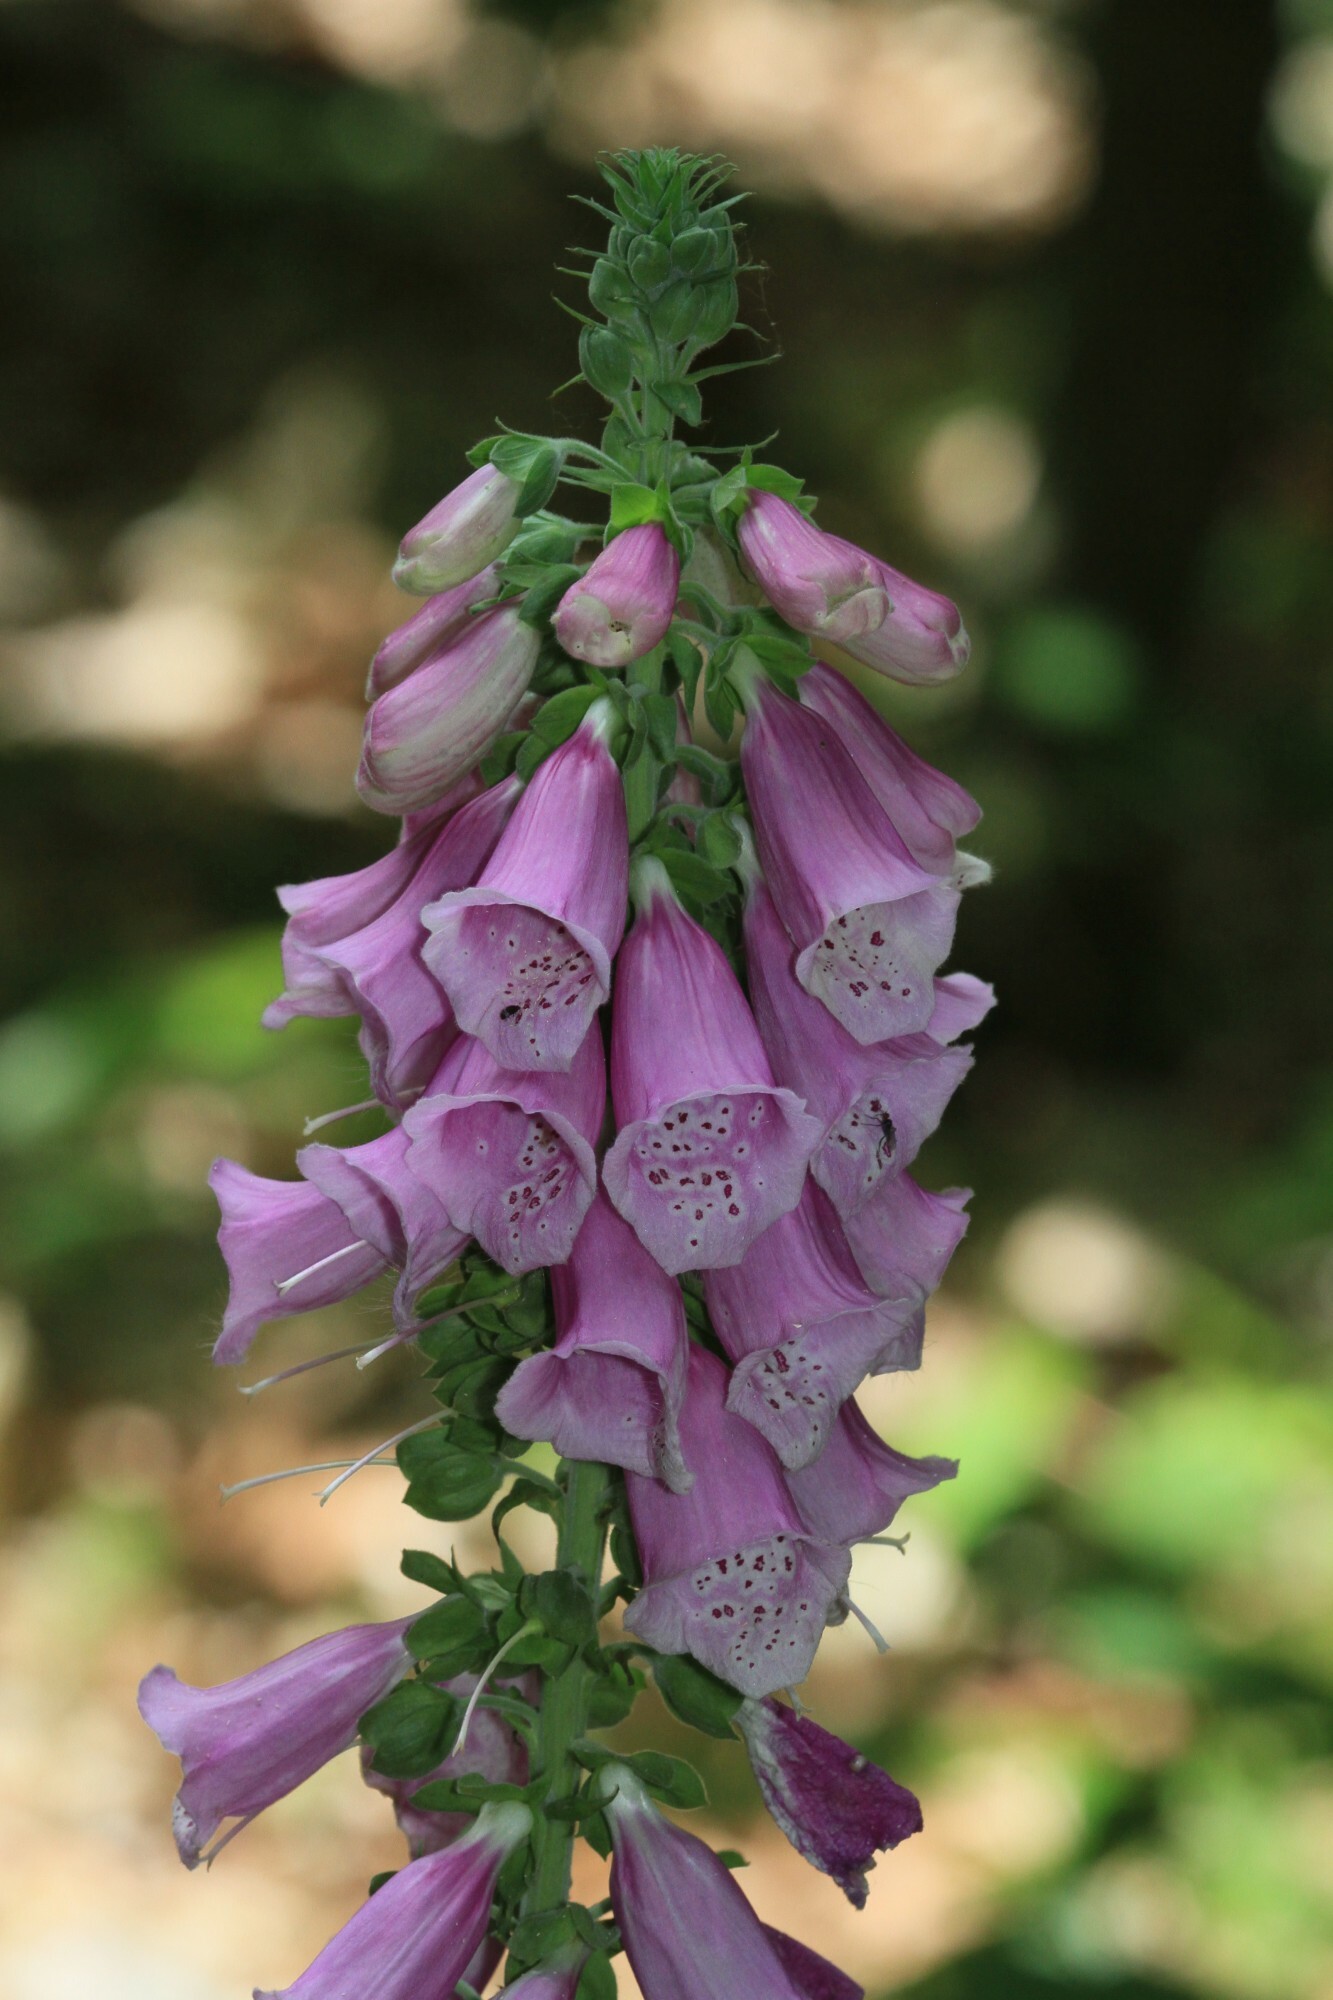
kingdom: Plantae
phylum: Tracheophyta
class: Magnoliopsida
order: Lamiales
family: Plantaginaceae
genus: Digitalis
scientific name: Digitalis purpurea
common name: Foxglove
